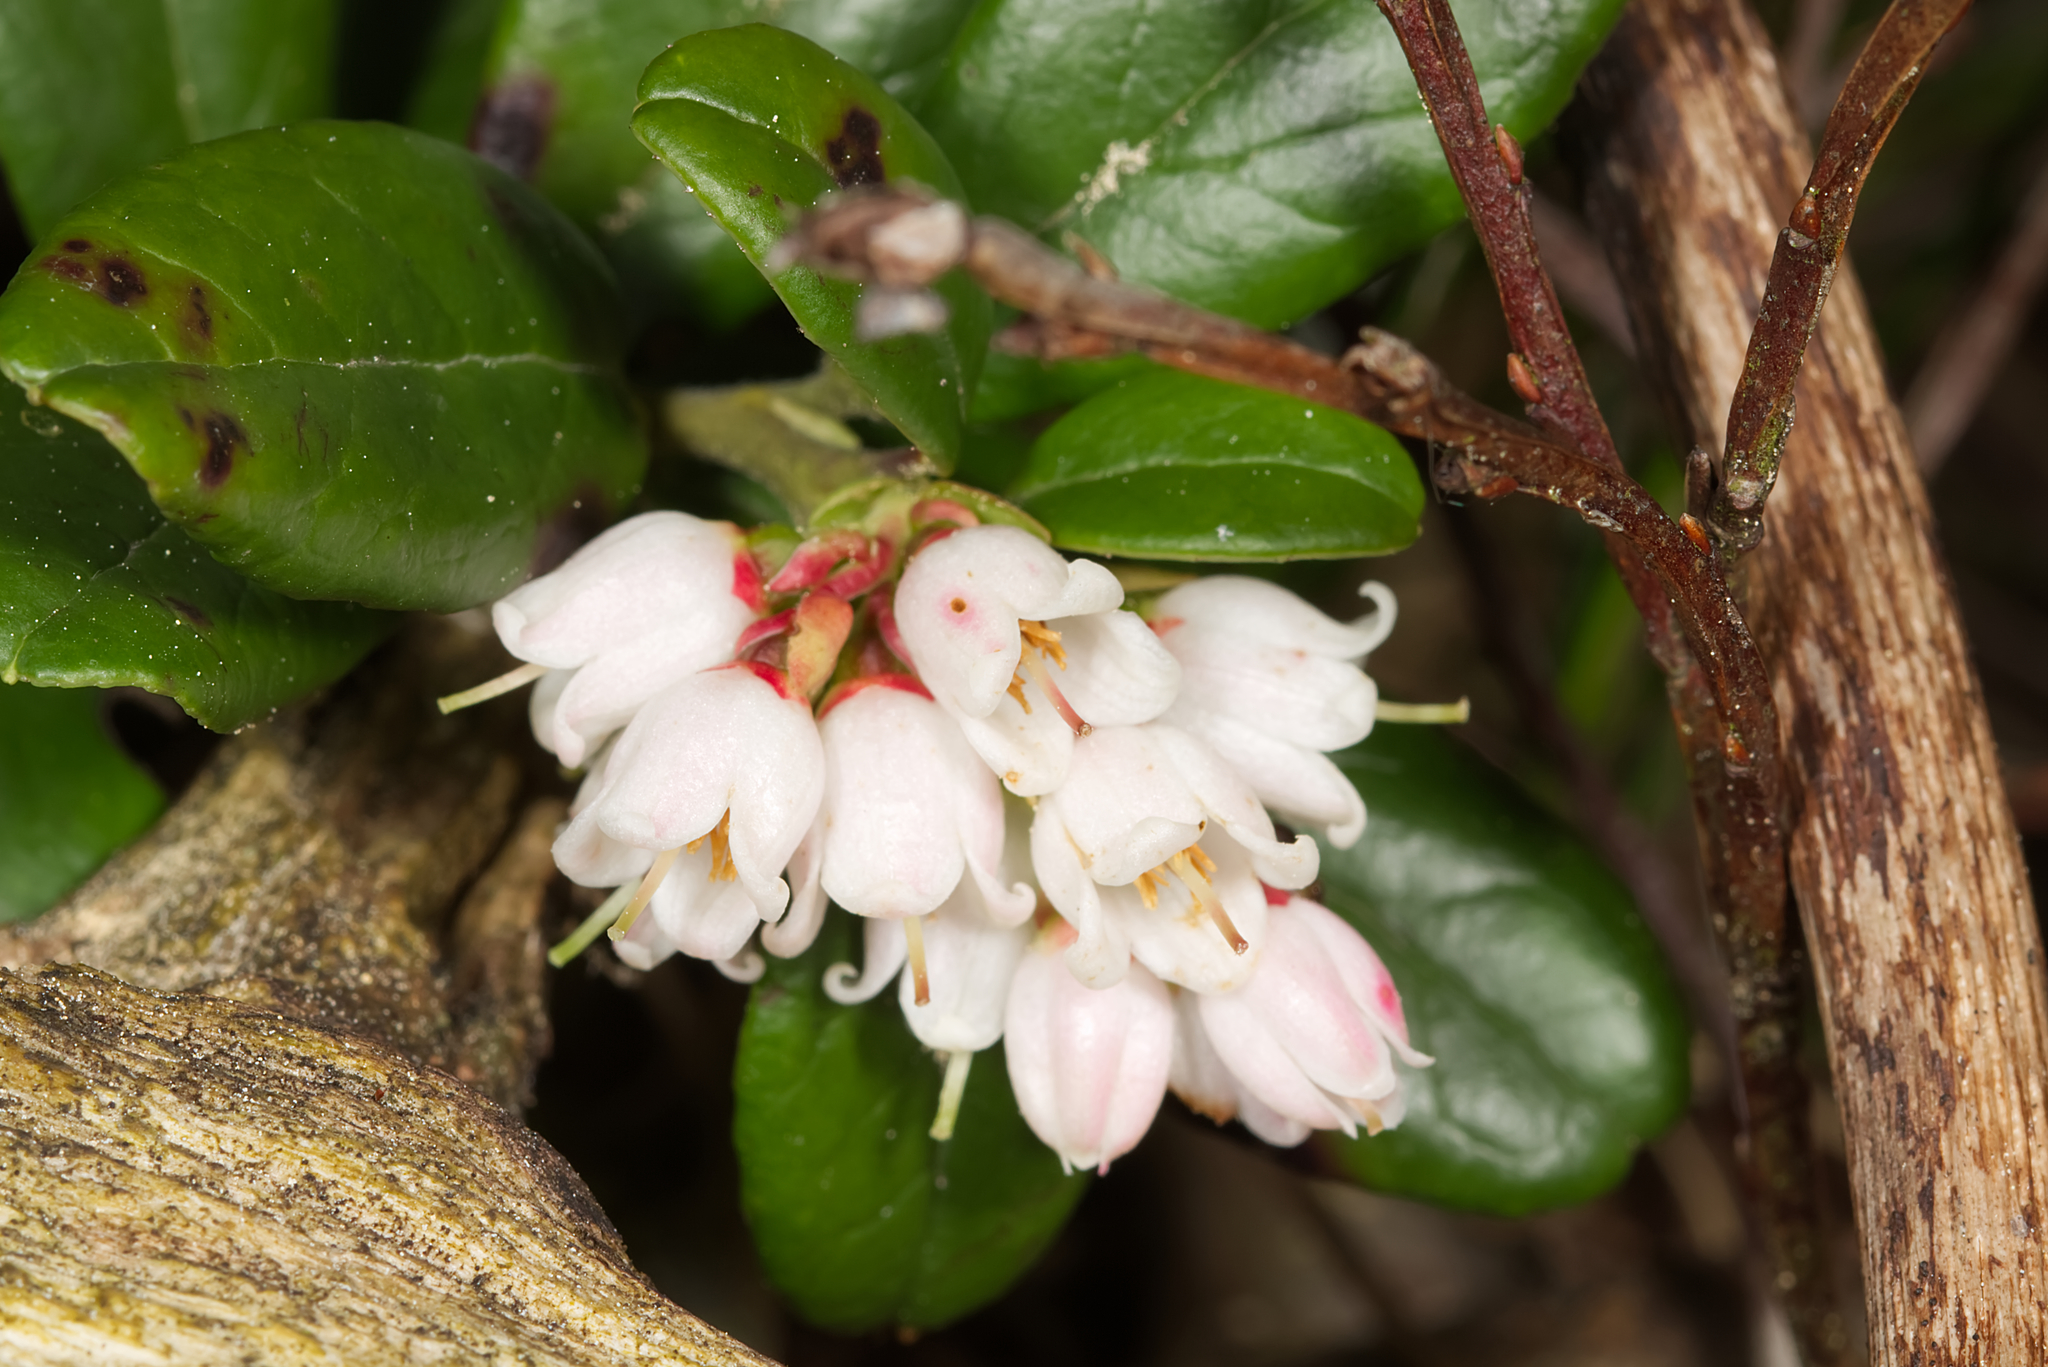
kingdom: Plantae
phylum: Tracheophyta
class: Magnoliopsida
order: Ericales
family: Ericaceae
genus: Vaccinium
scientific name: Vaccinium vitis-idaea
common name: Cowberry
